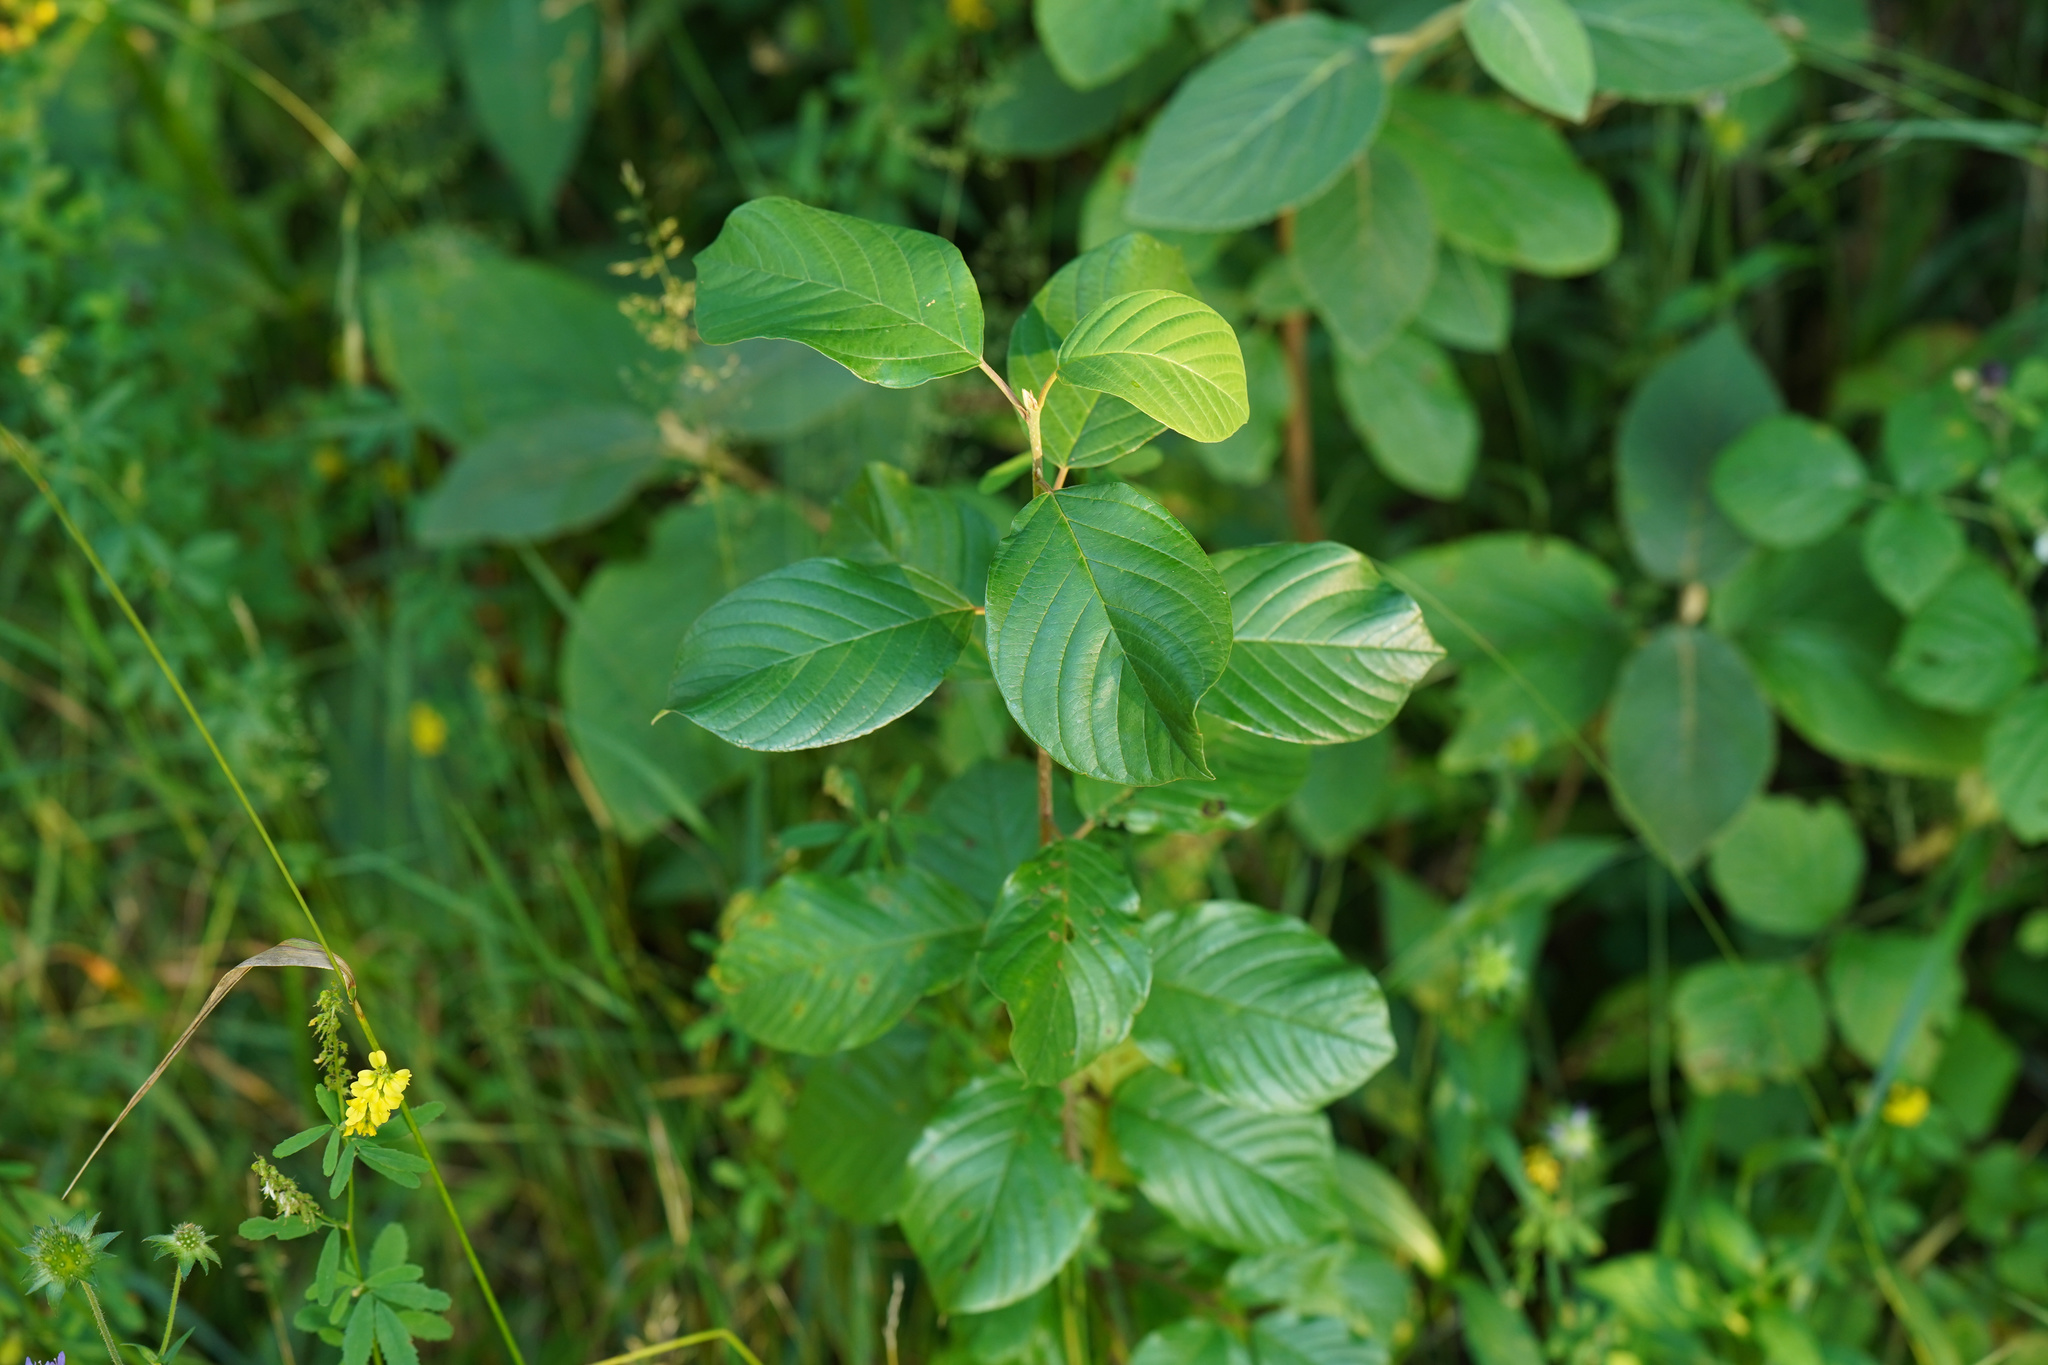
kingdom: Plantae
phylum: Tracheophyta
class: Magnoliopsida
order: Rosales
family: Rhamnaceae
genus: Frangula
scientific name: Frangula alnus
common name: Alder buckthorn
